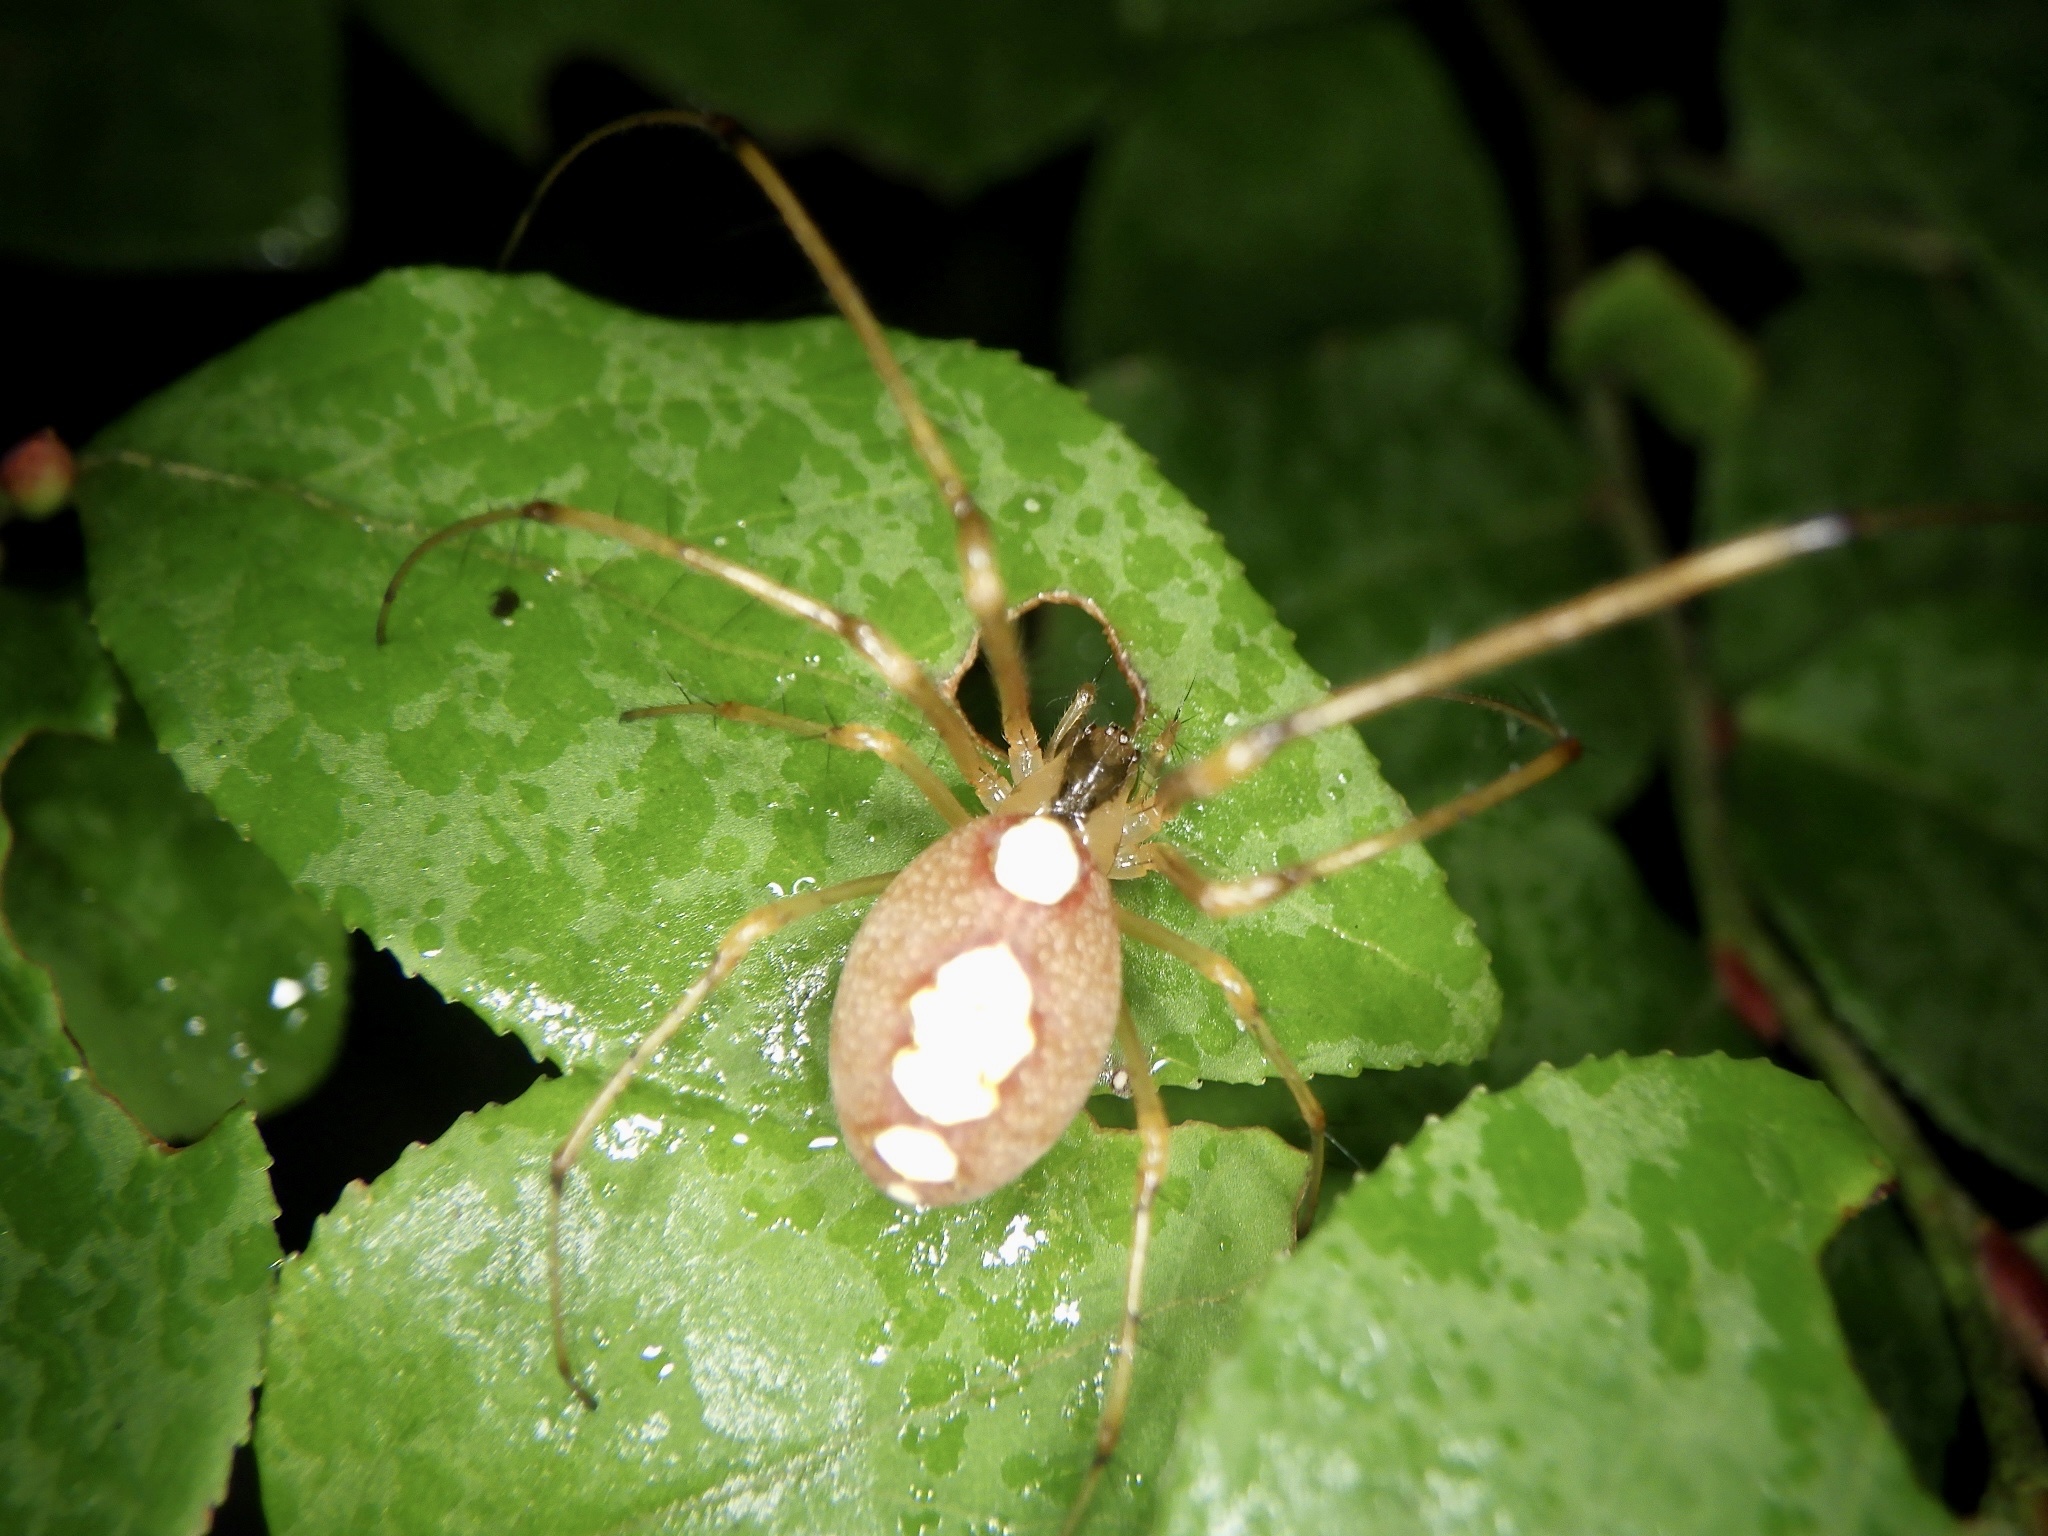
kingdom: Animalia
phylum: Arthropoda
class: Arachnida
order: Araneae
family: Tetragnathidae
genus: Metellina
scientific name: Metellina ornata
